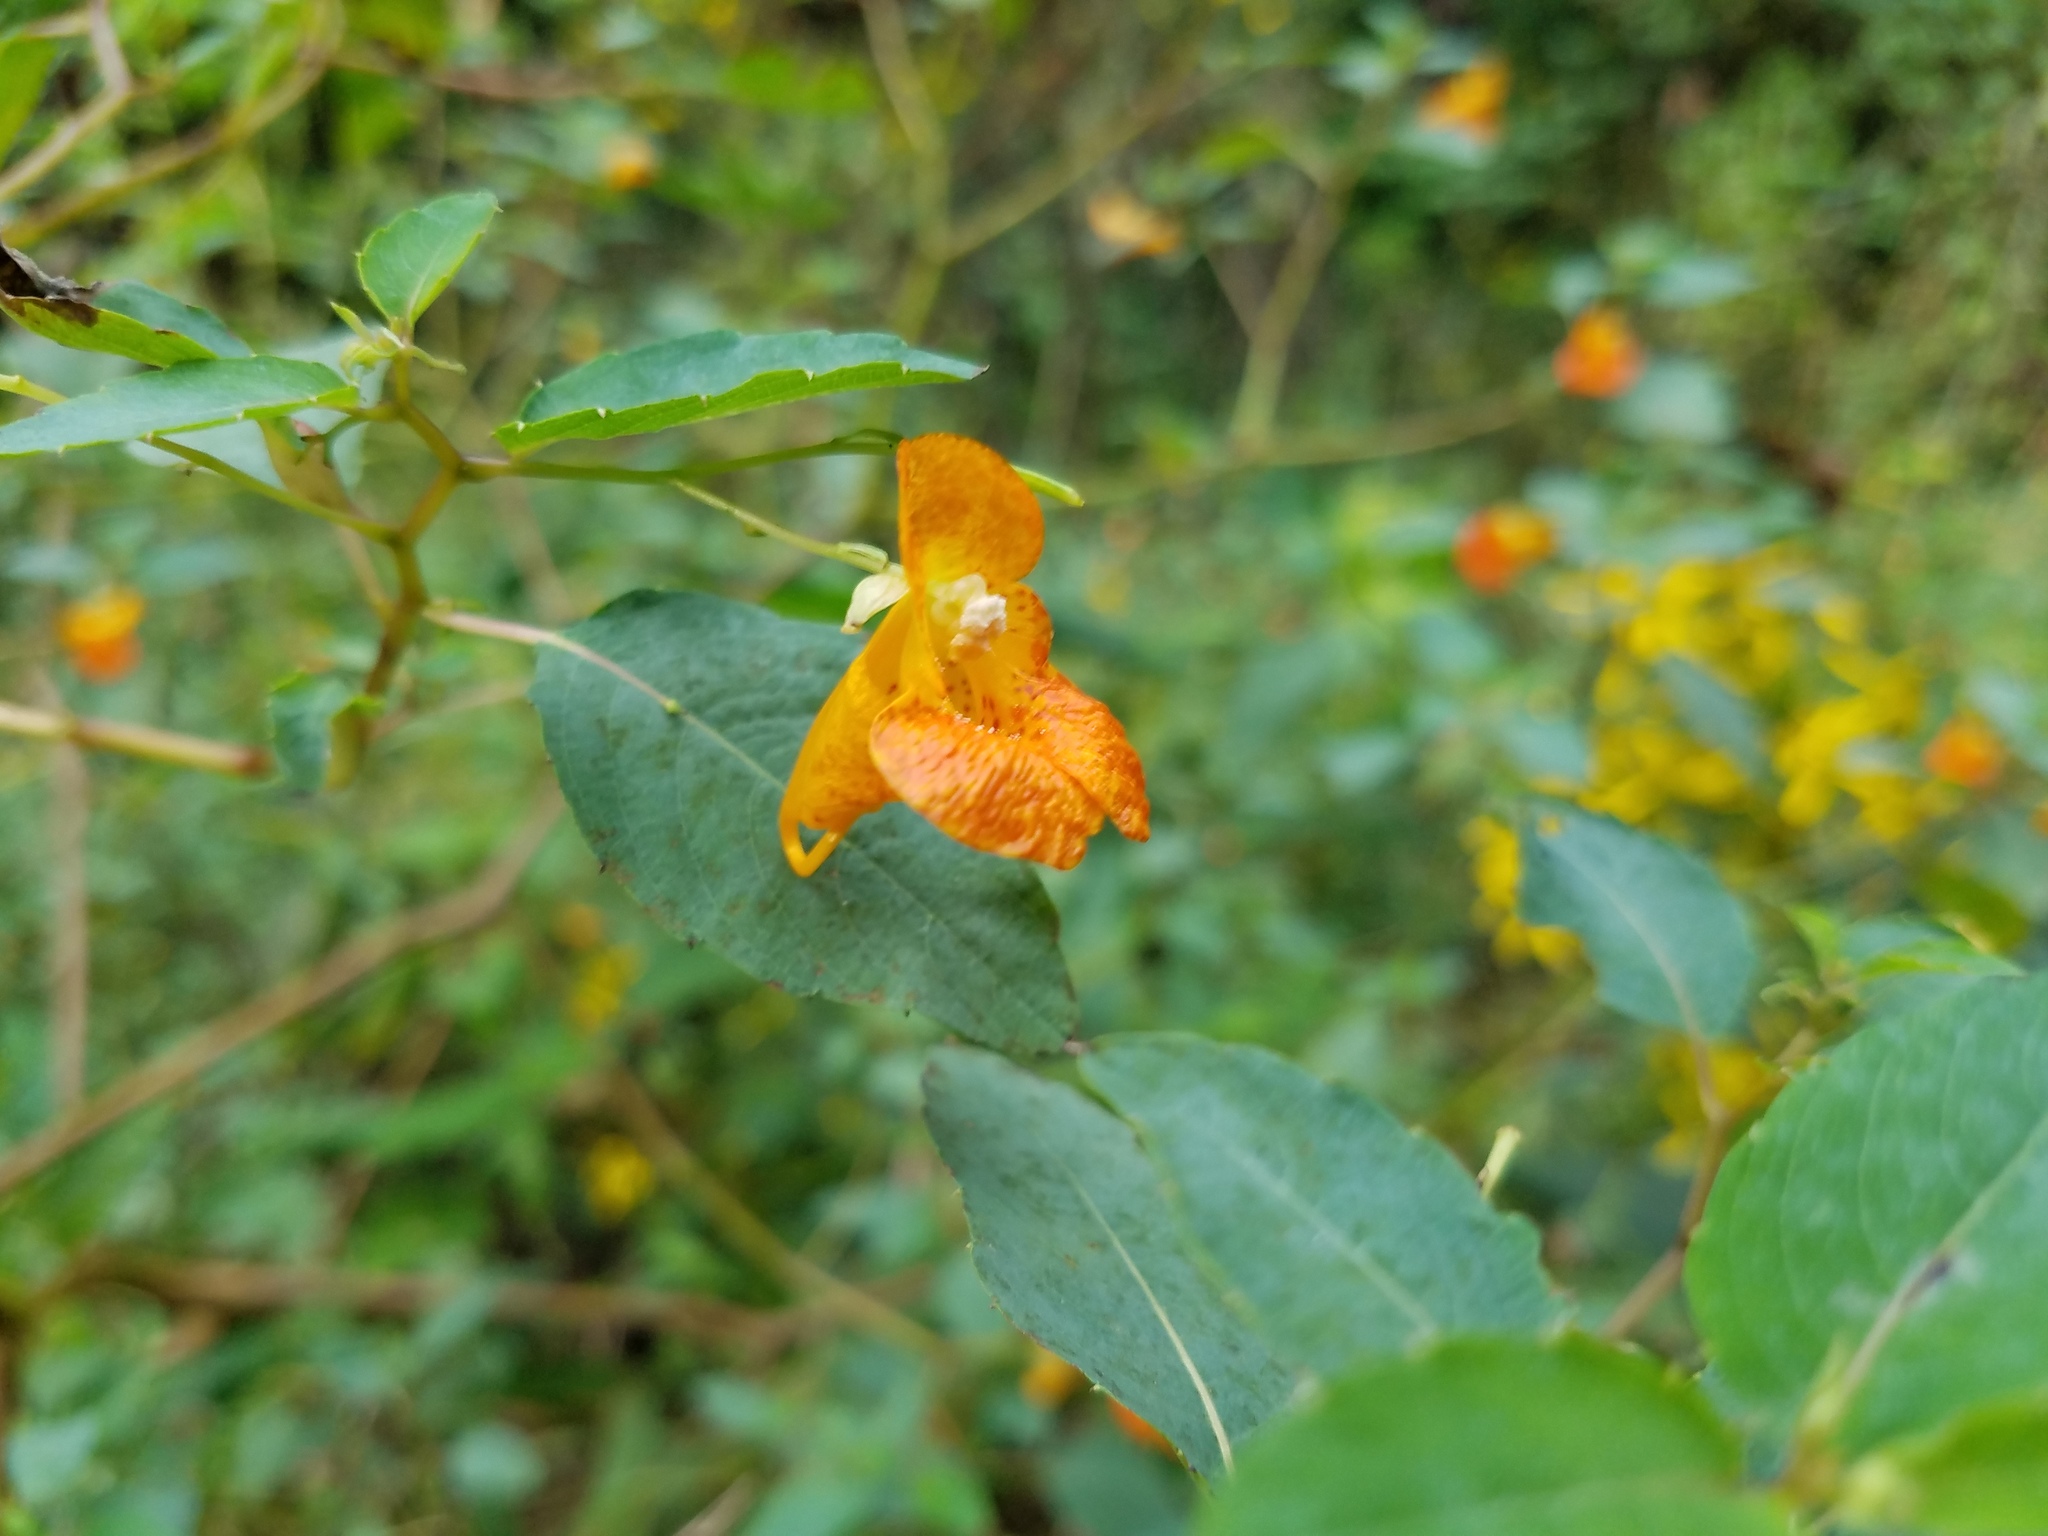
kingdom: Plantae
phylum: Tracheophyta
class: Magnoliopsida
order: Ericales
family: Balsaminaceae
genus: Impatiens
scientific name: Impatiens capensis
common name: Orange balsam
